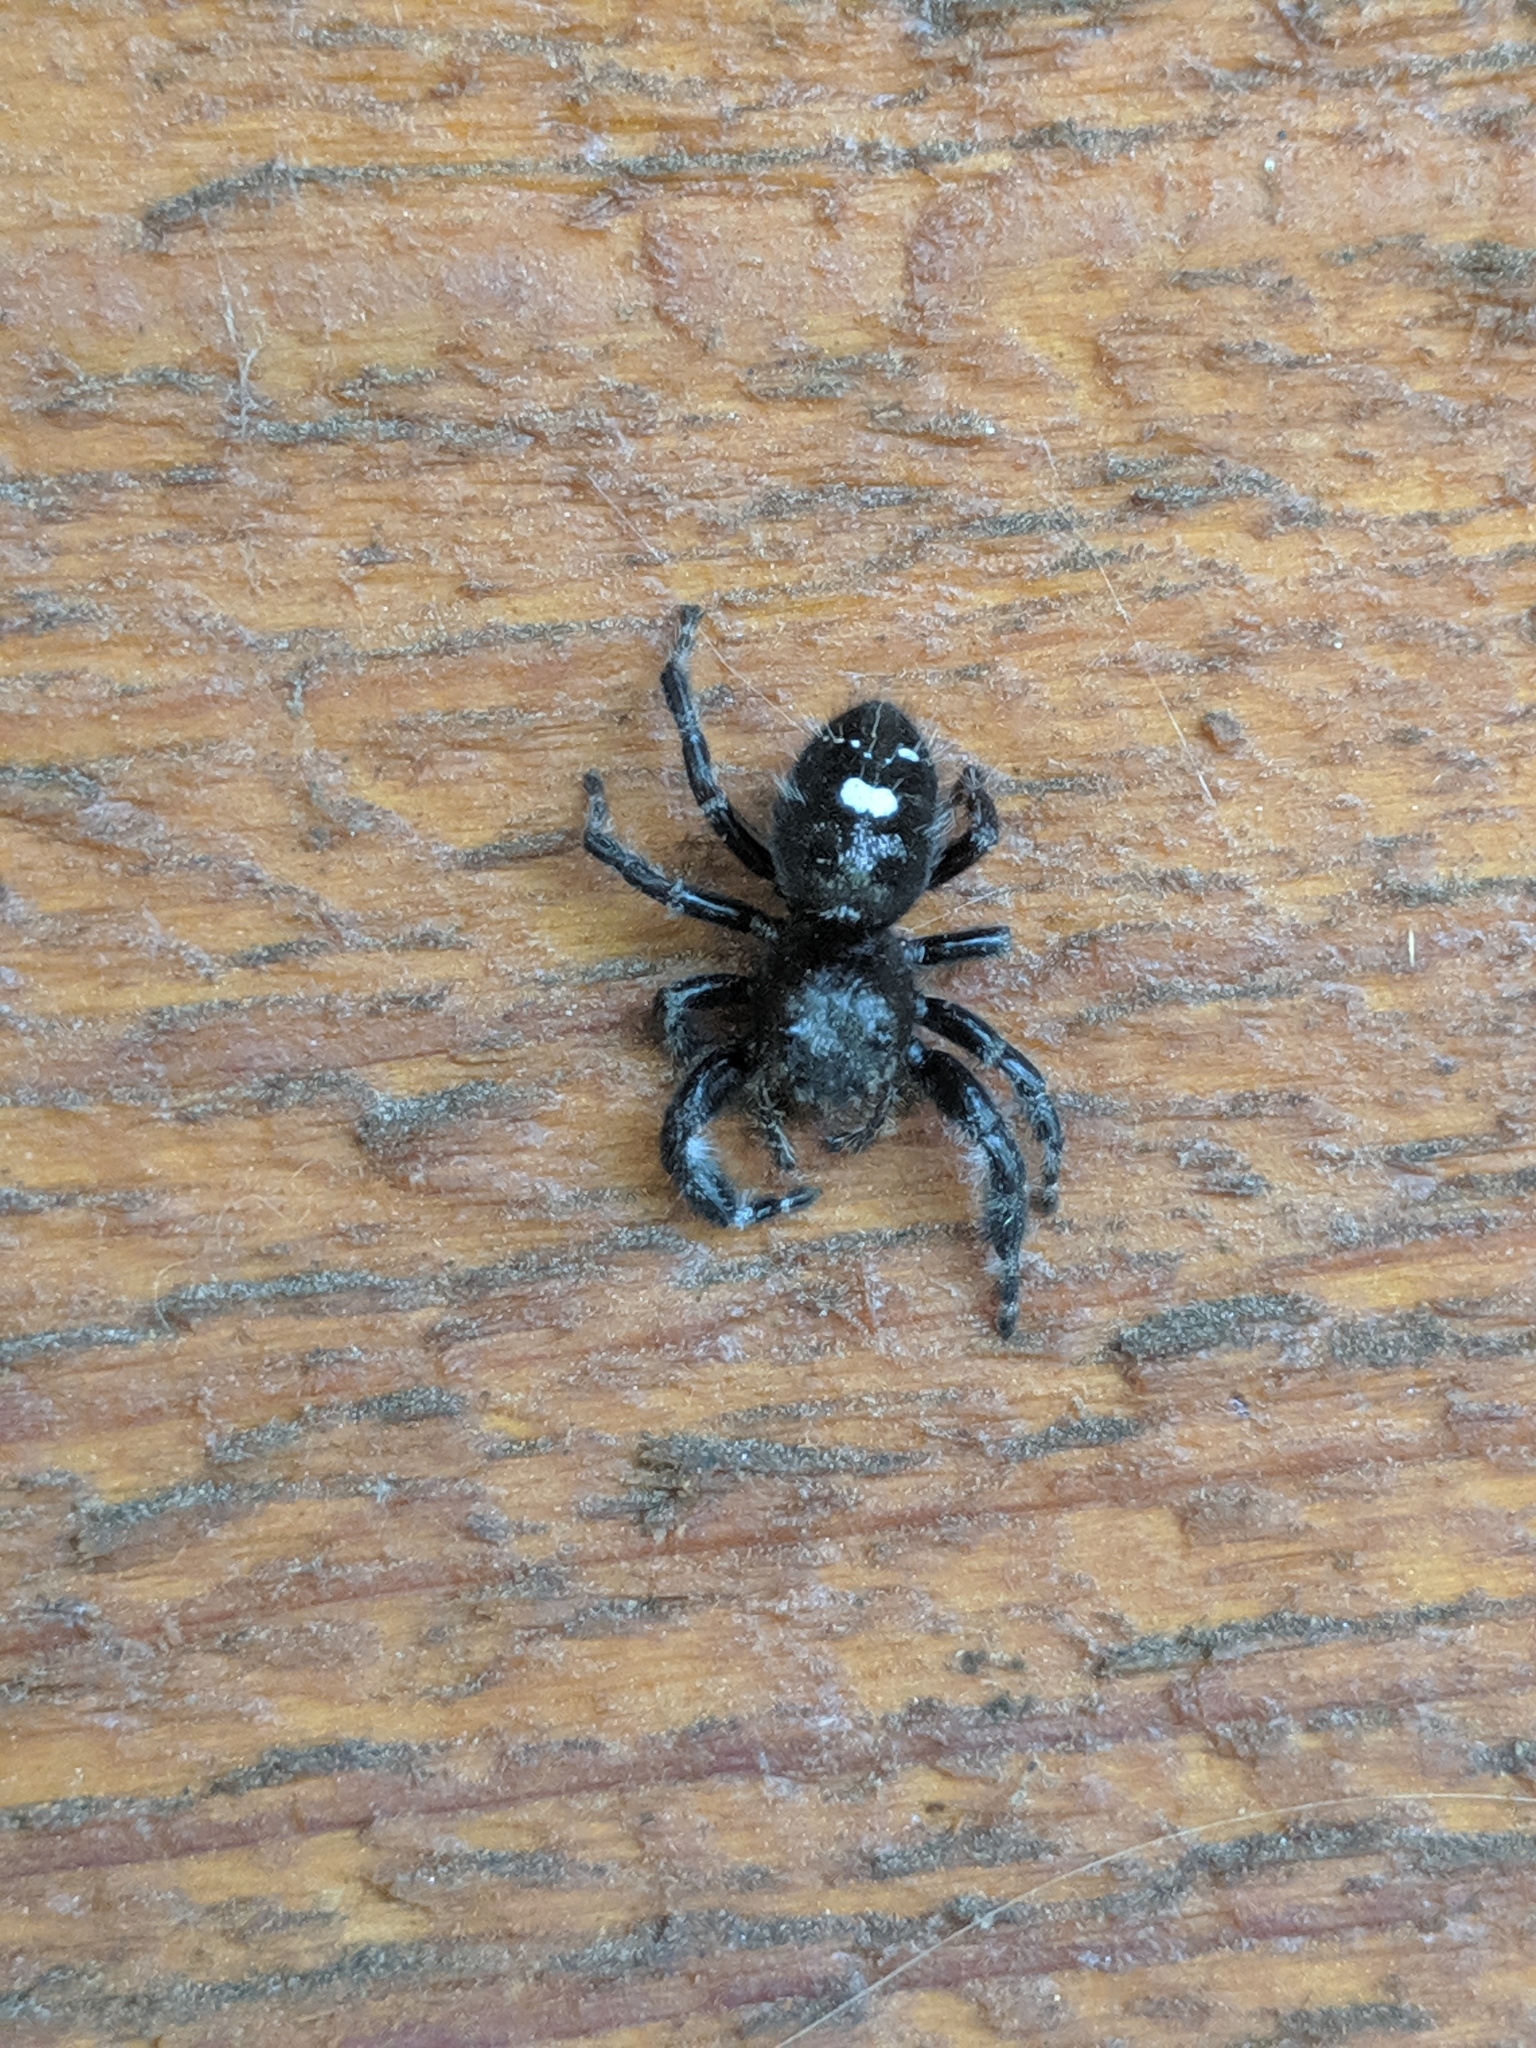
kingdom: Animalia
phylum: Arthropoda
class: Arachnida
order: Araneae
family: Salticidae
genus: Phidippus
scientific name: Phidippus audax
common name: Bold jumper
